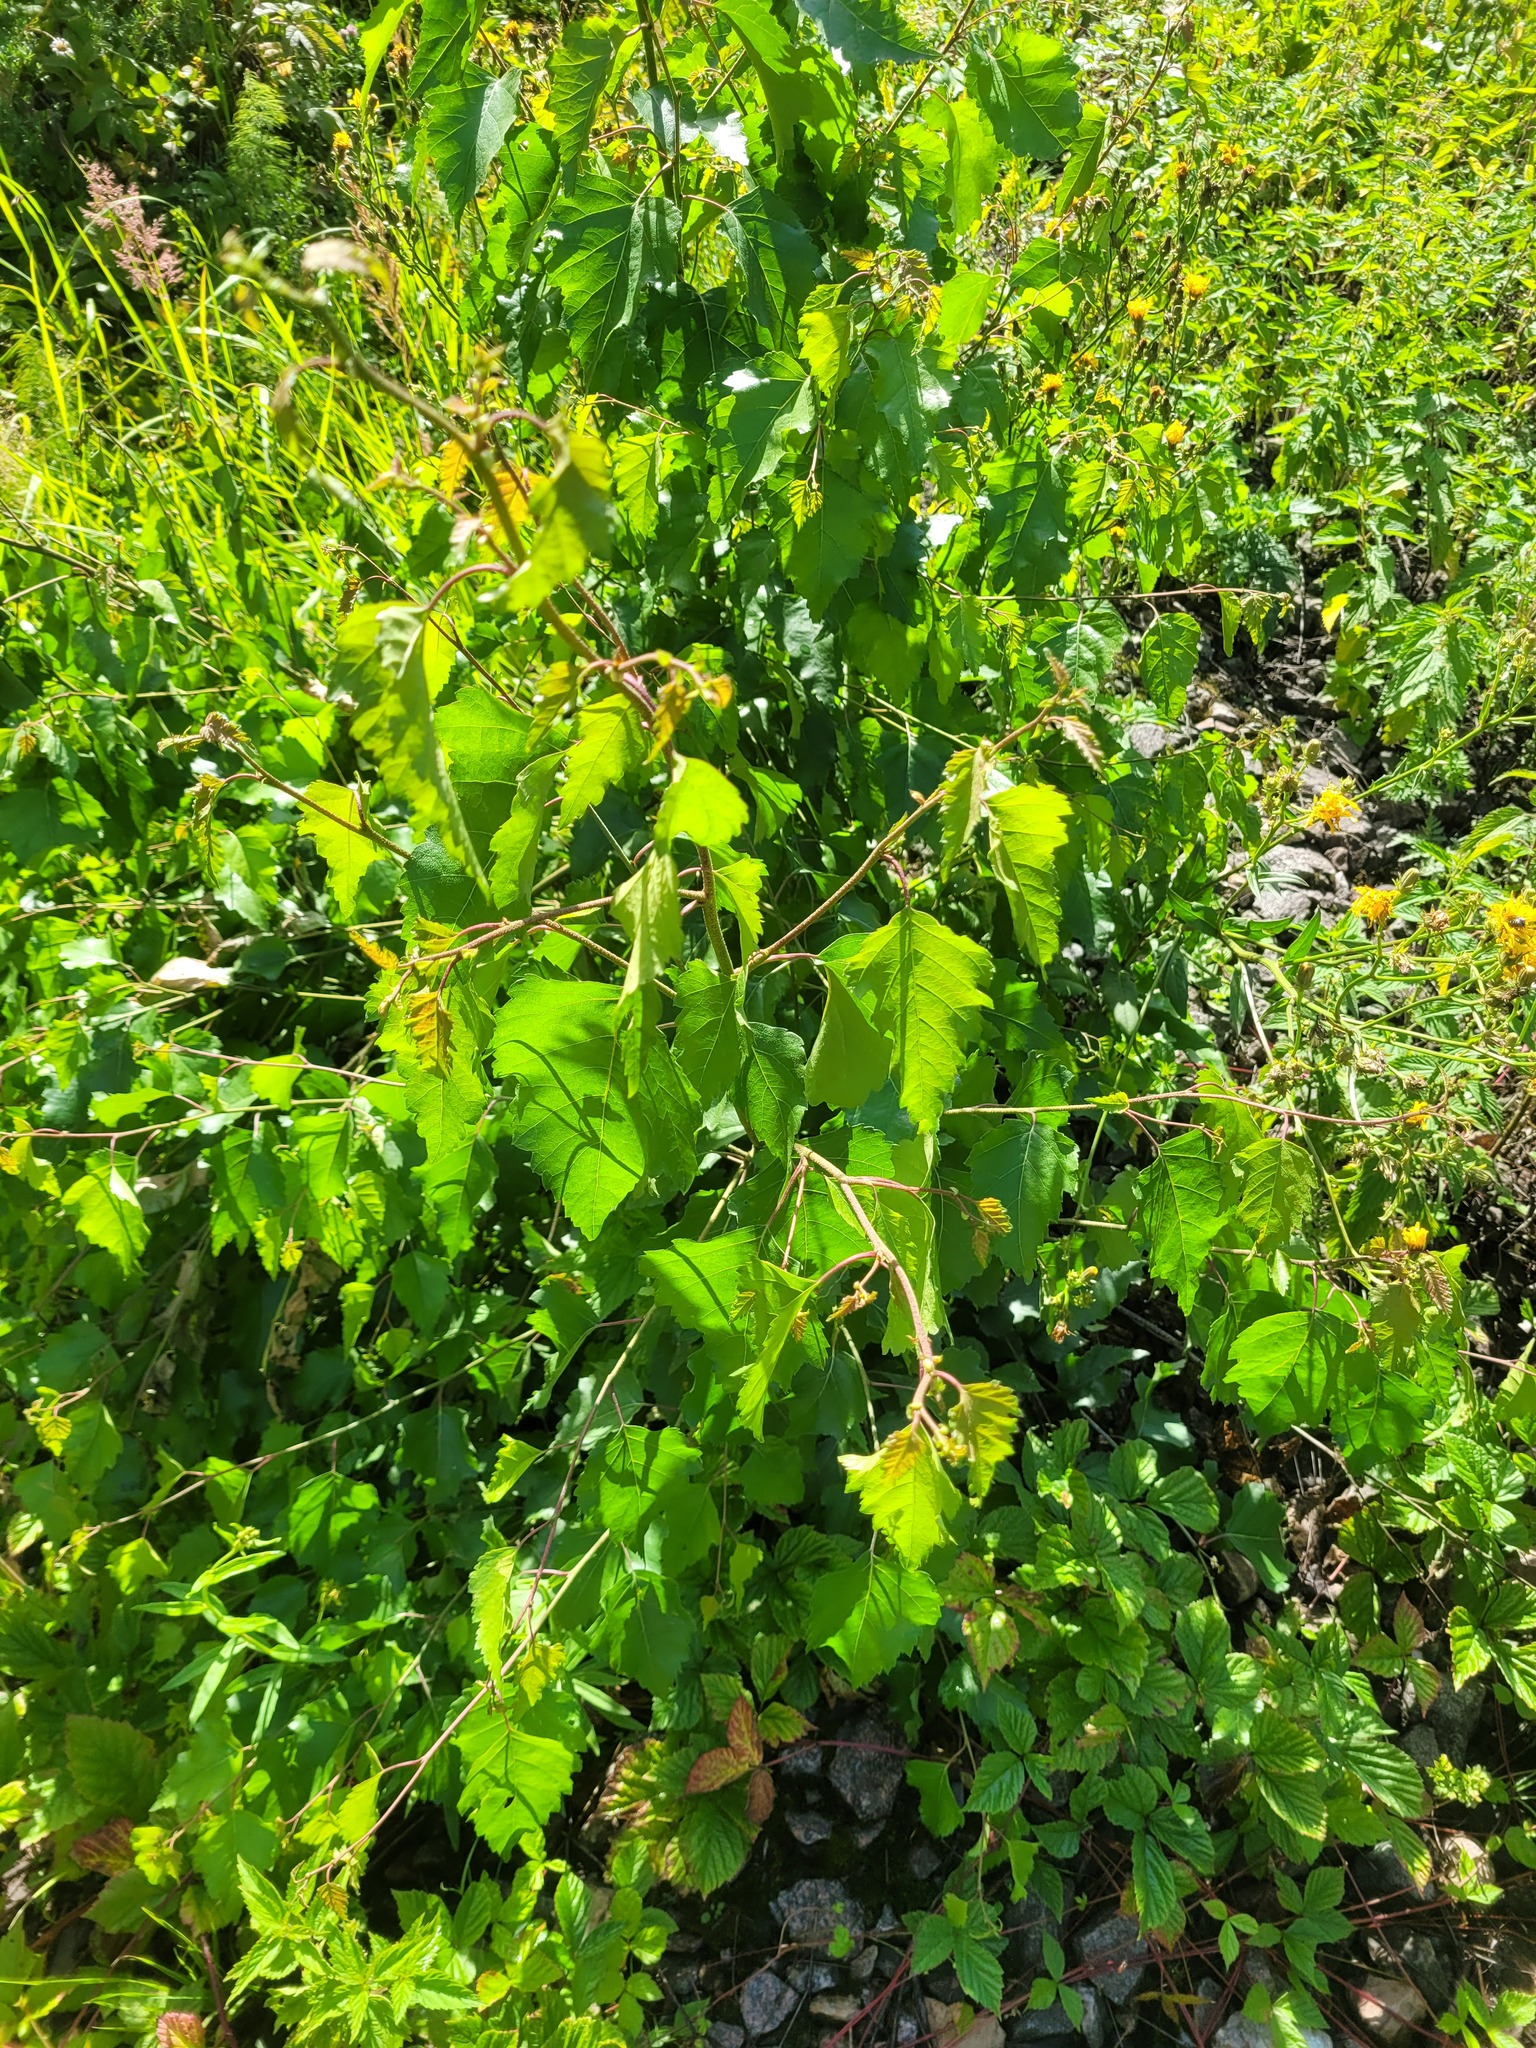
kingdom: Plantae
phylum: Tracheophyta
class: Magnoliopsida
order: Fagales
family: Betulaceae
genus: Betula
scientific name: Betula pendula
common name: Silver birch
